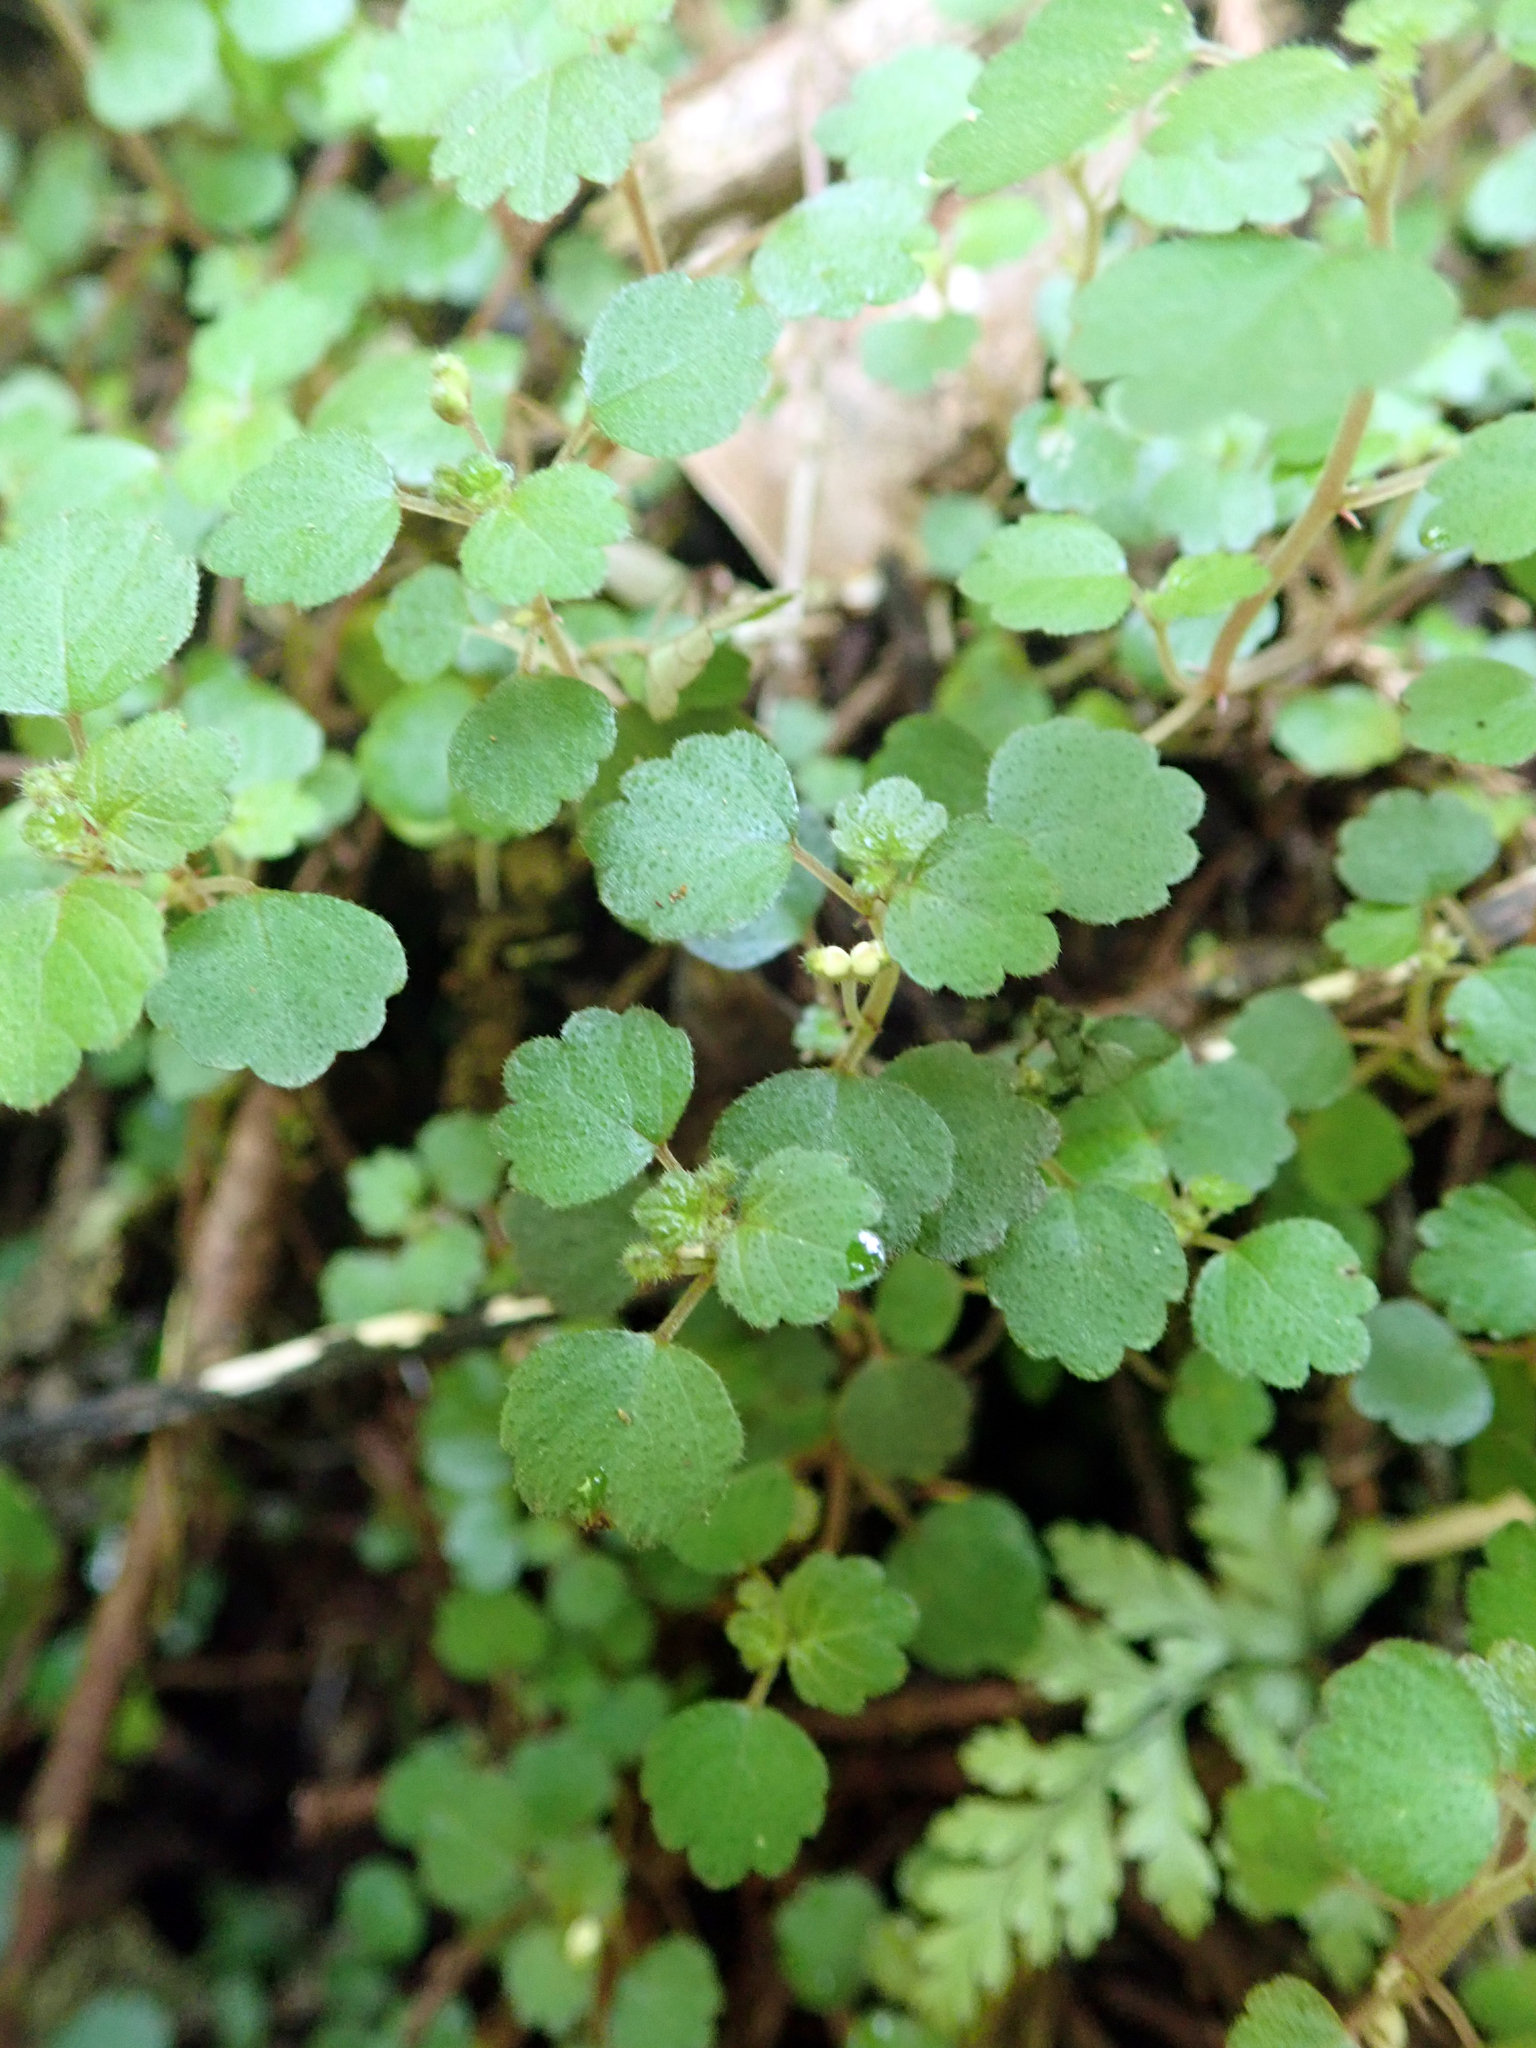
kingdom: Plantae
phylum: Tracheophyta
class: Magnoliopsida
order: Rosales
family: Urticaceae
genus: Australina
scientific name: Australina pusilla
